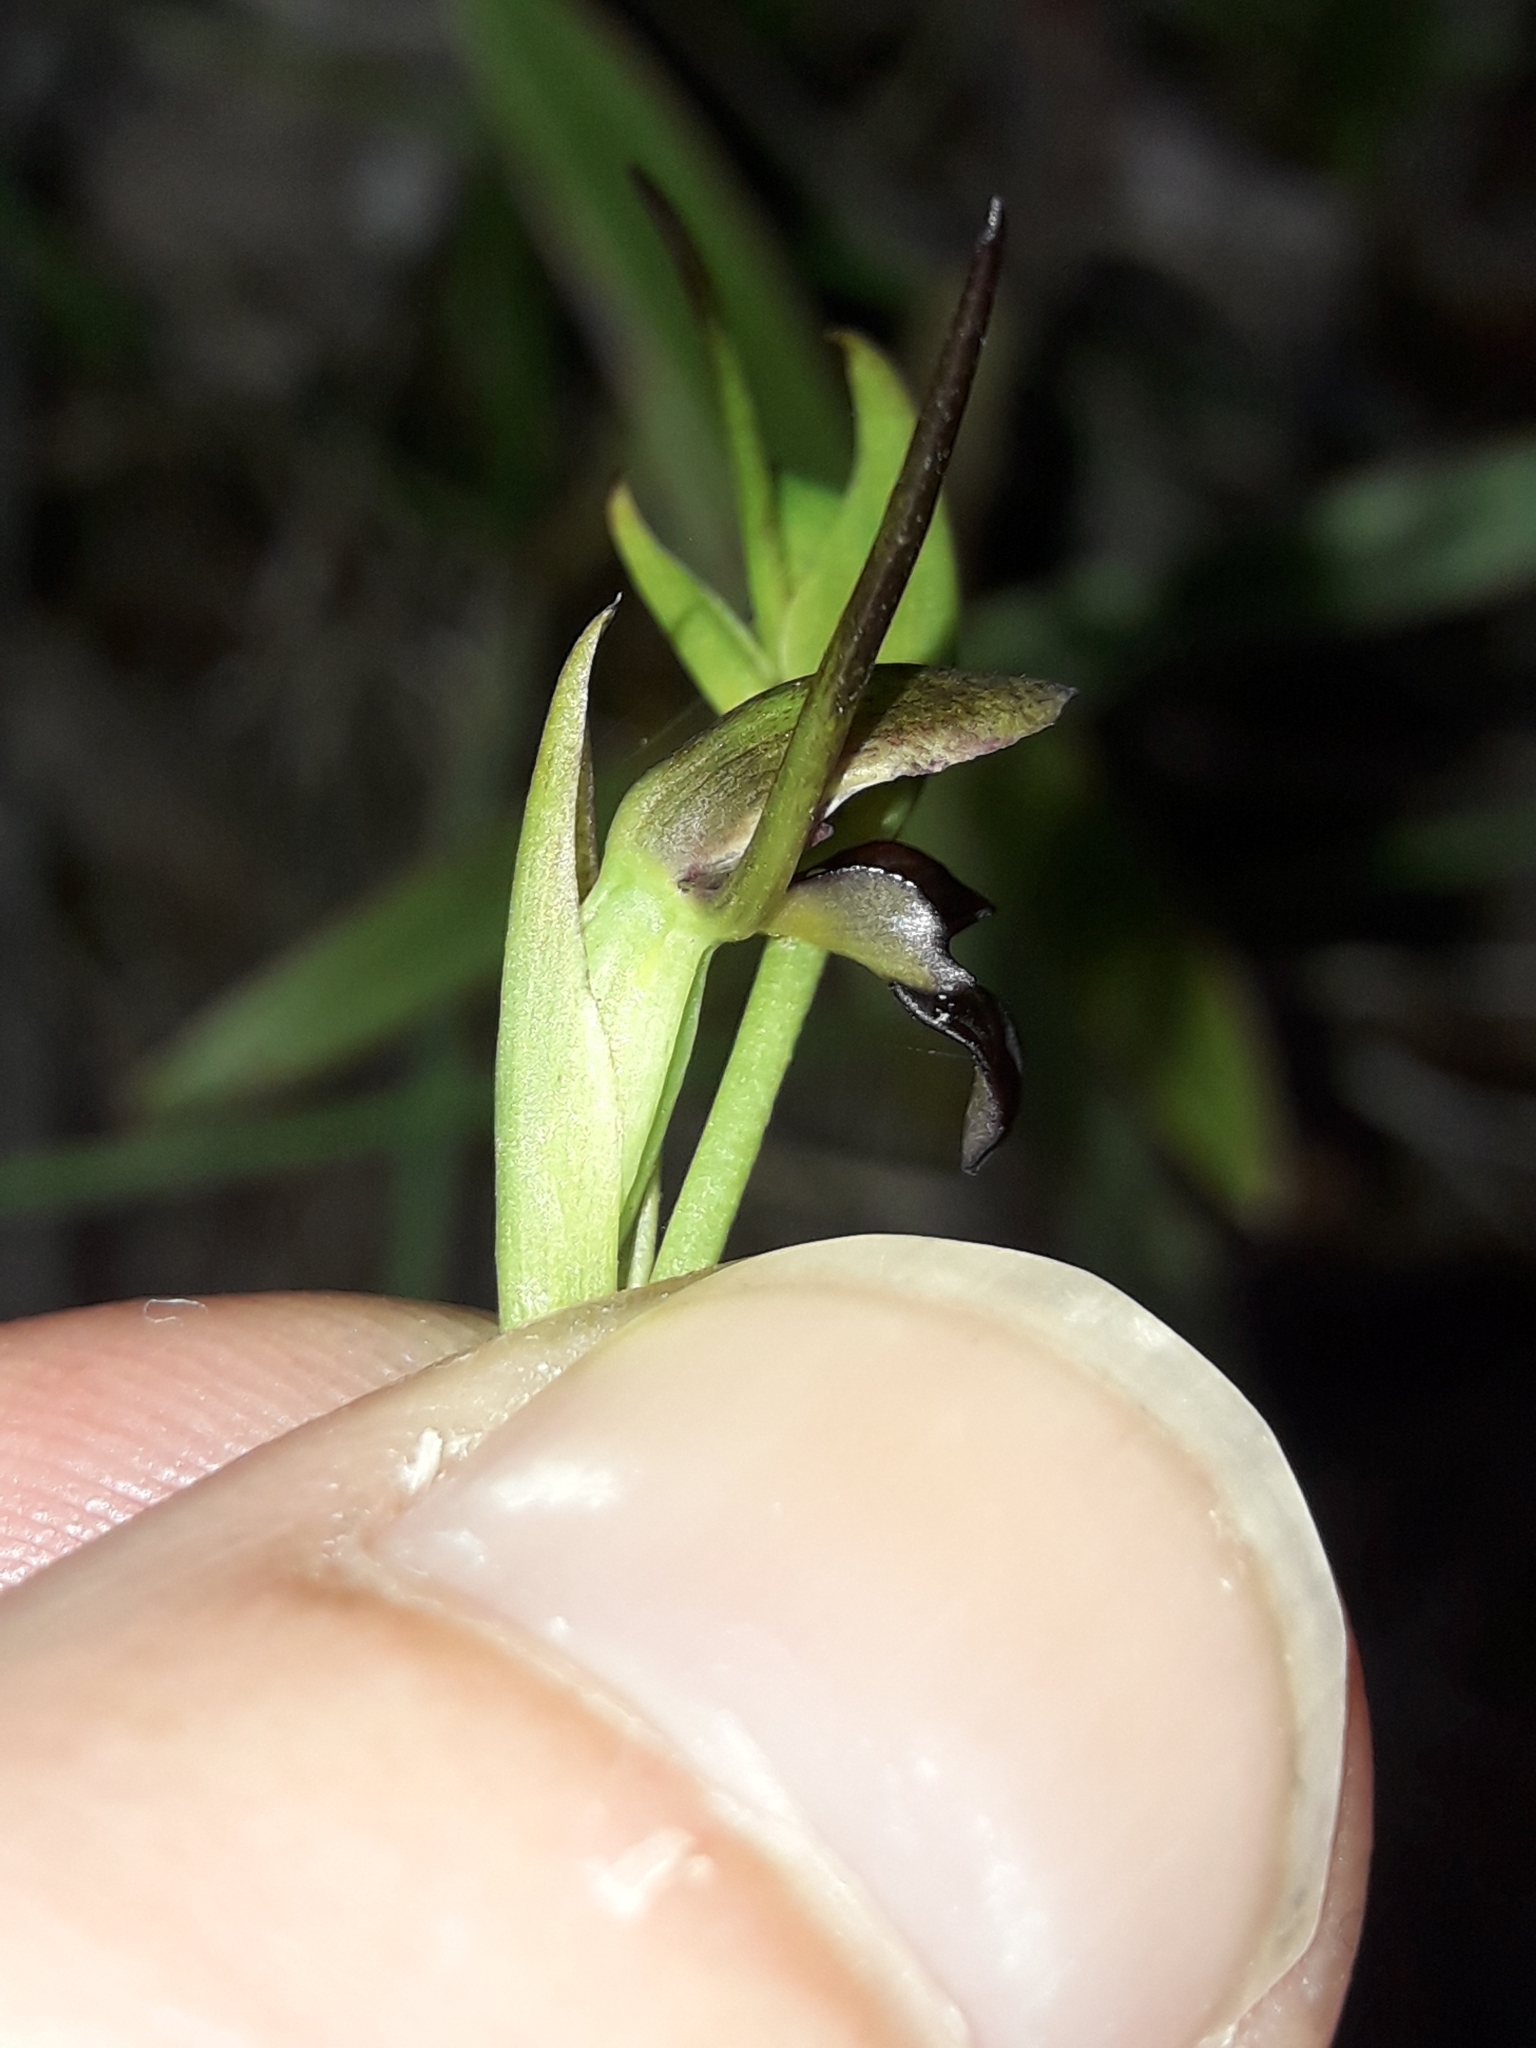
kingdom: Plantae
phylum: Tracheophyta
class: Liliopsida
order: Asparagales
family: Orchidaceae
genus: Orthoceras
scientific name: Orthoceras novae-zeelandiae
